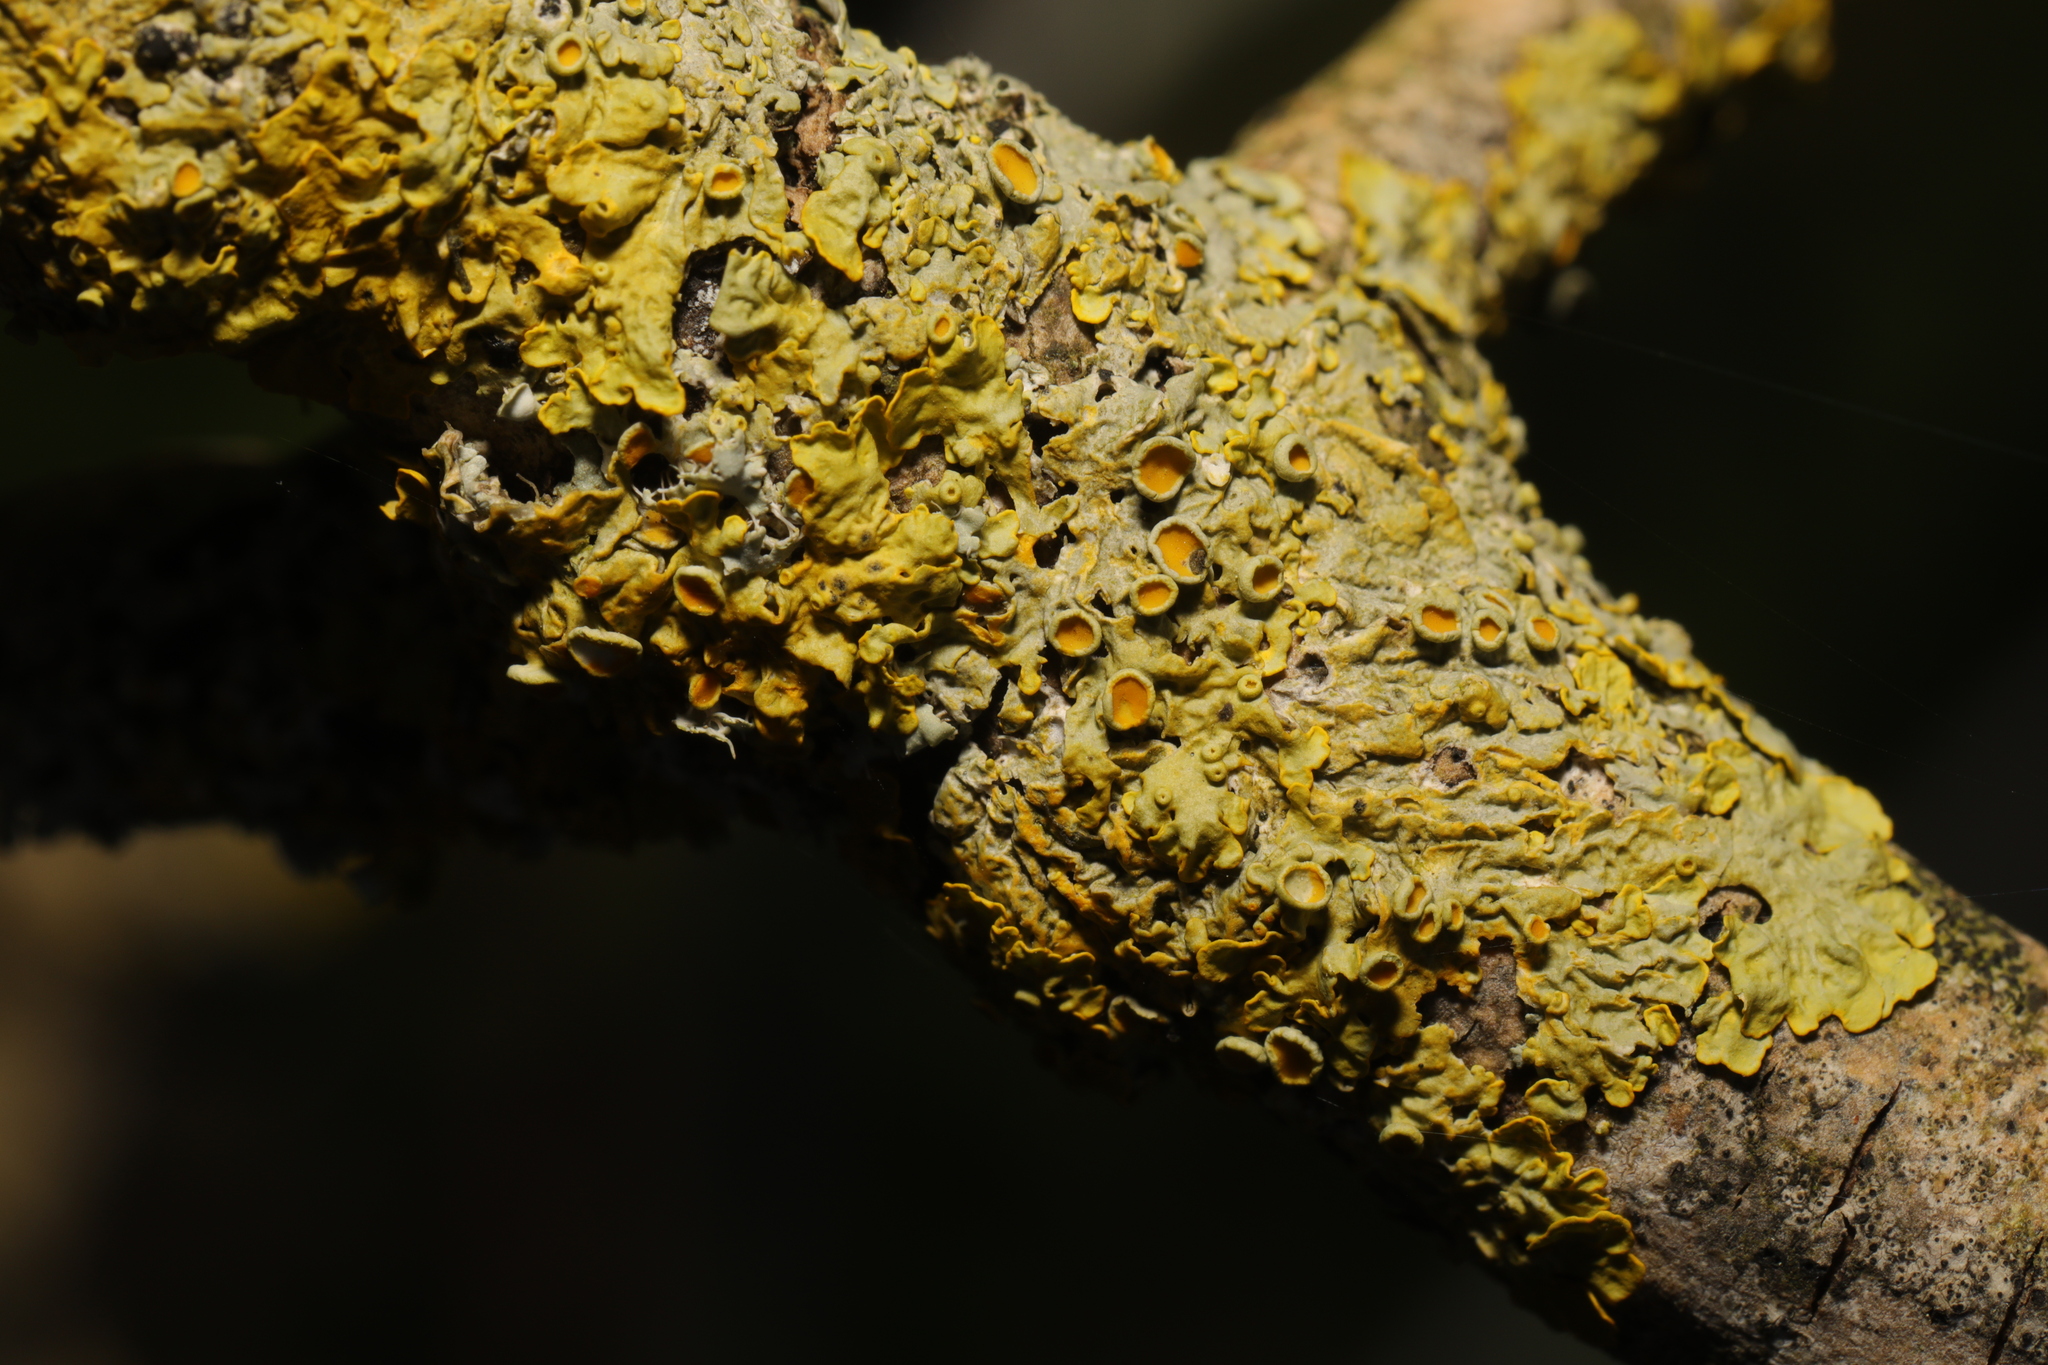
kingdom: Fungi
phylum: Ascomycota
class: Lecanoromycetes
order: Teloschistales
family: Teloschistaceae
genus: Xanthoria
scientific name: Xanthoria parietina
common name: Common orange lichen
